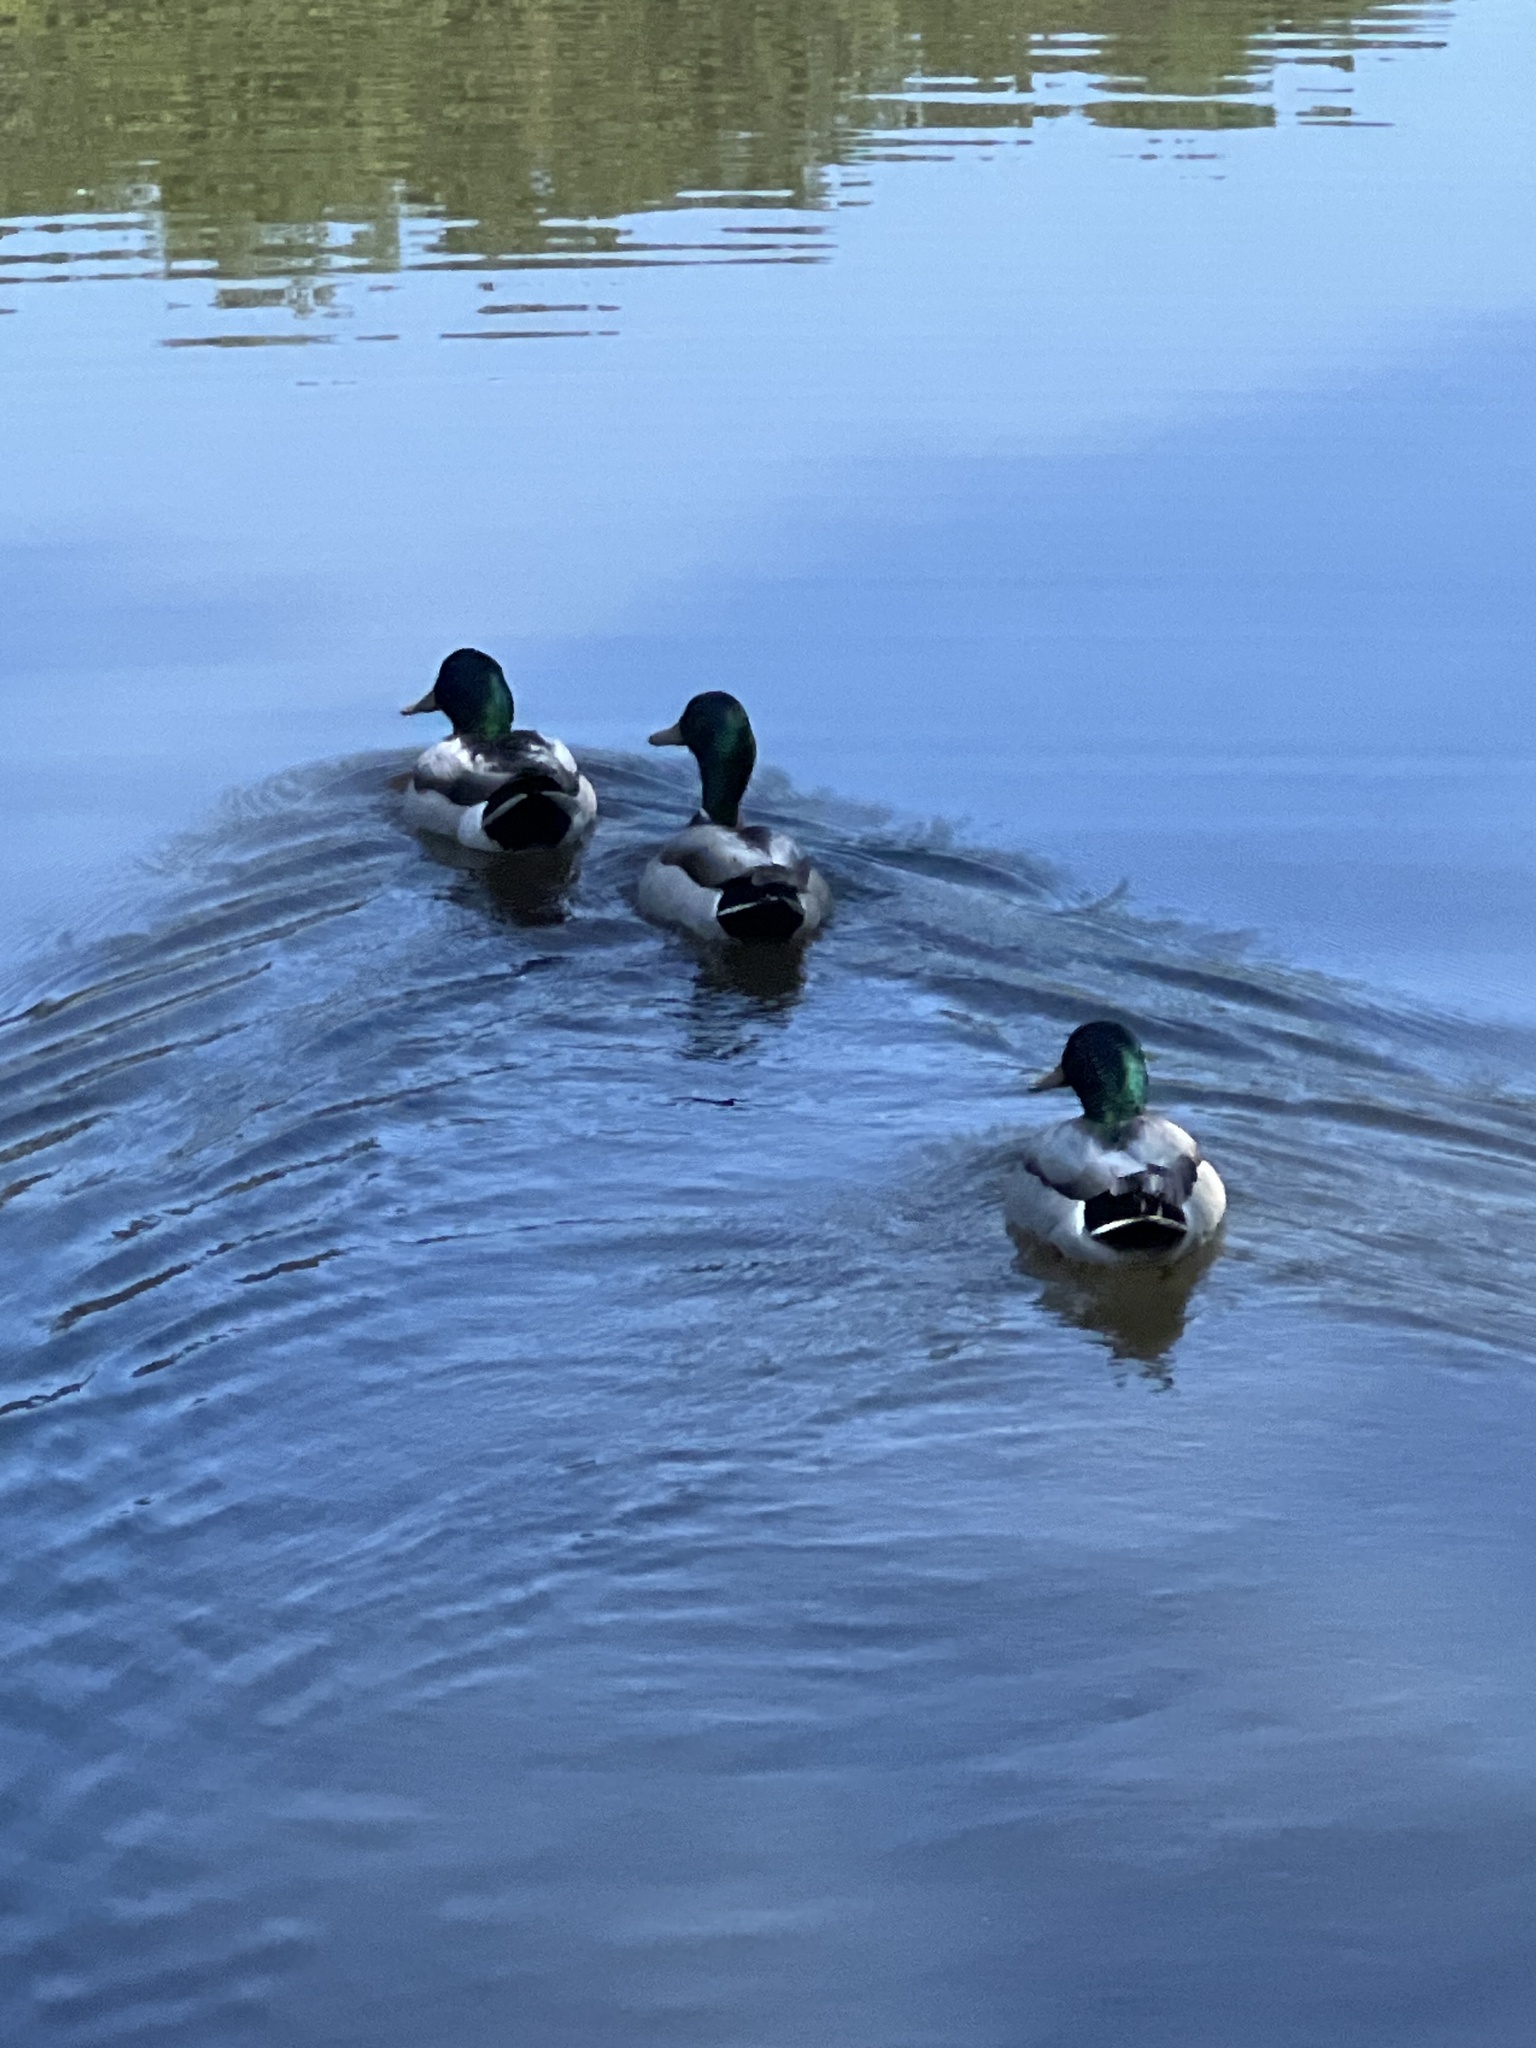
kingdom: Animalia
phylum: Chordata
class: Aves
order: Anseriformes
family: Anatidae
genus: Anas
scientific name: Anas platyrhynchos
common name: Mallard
